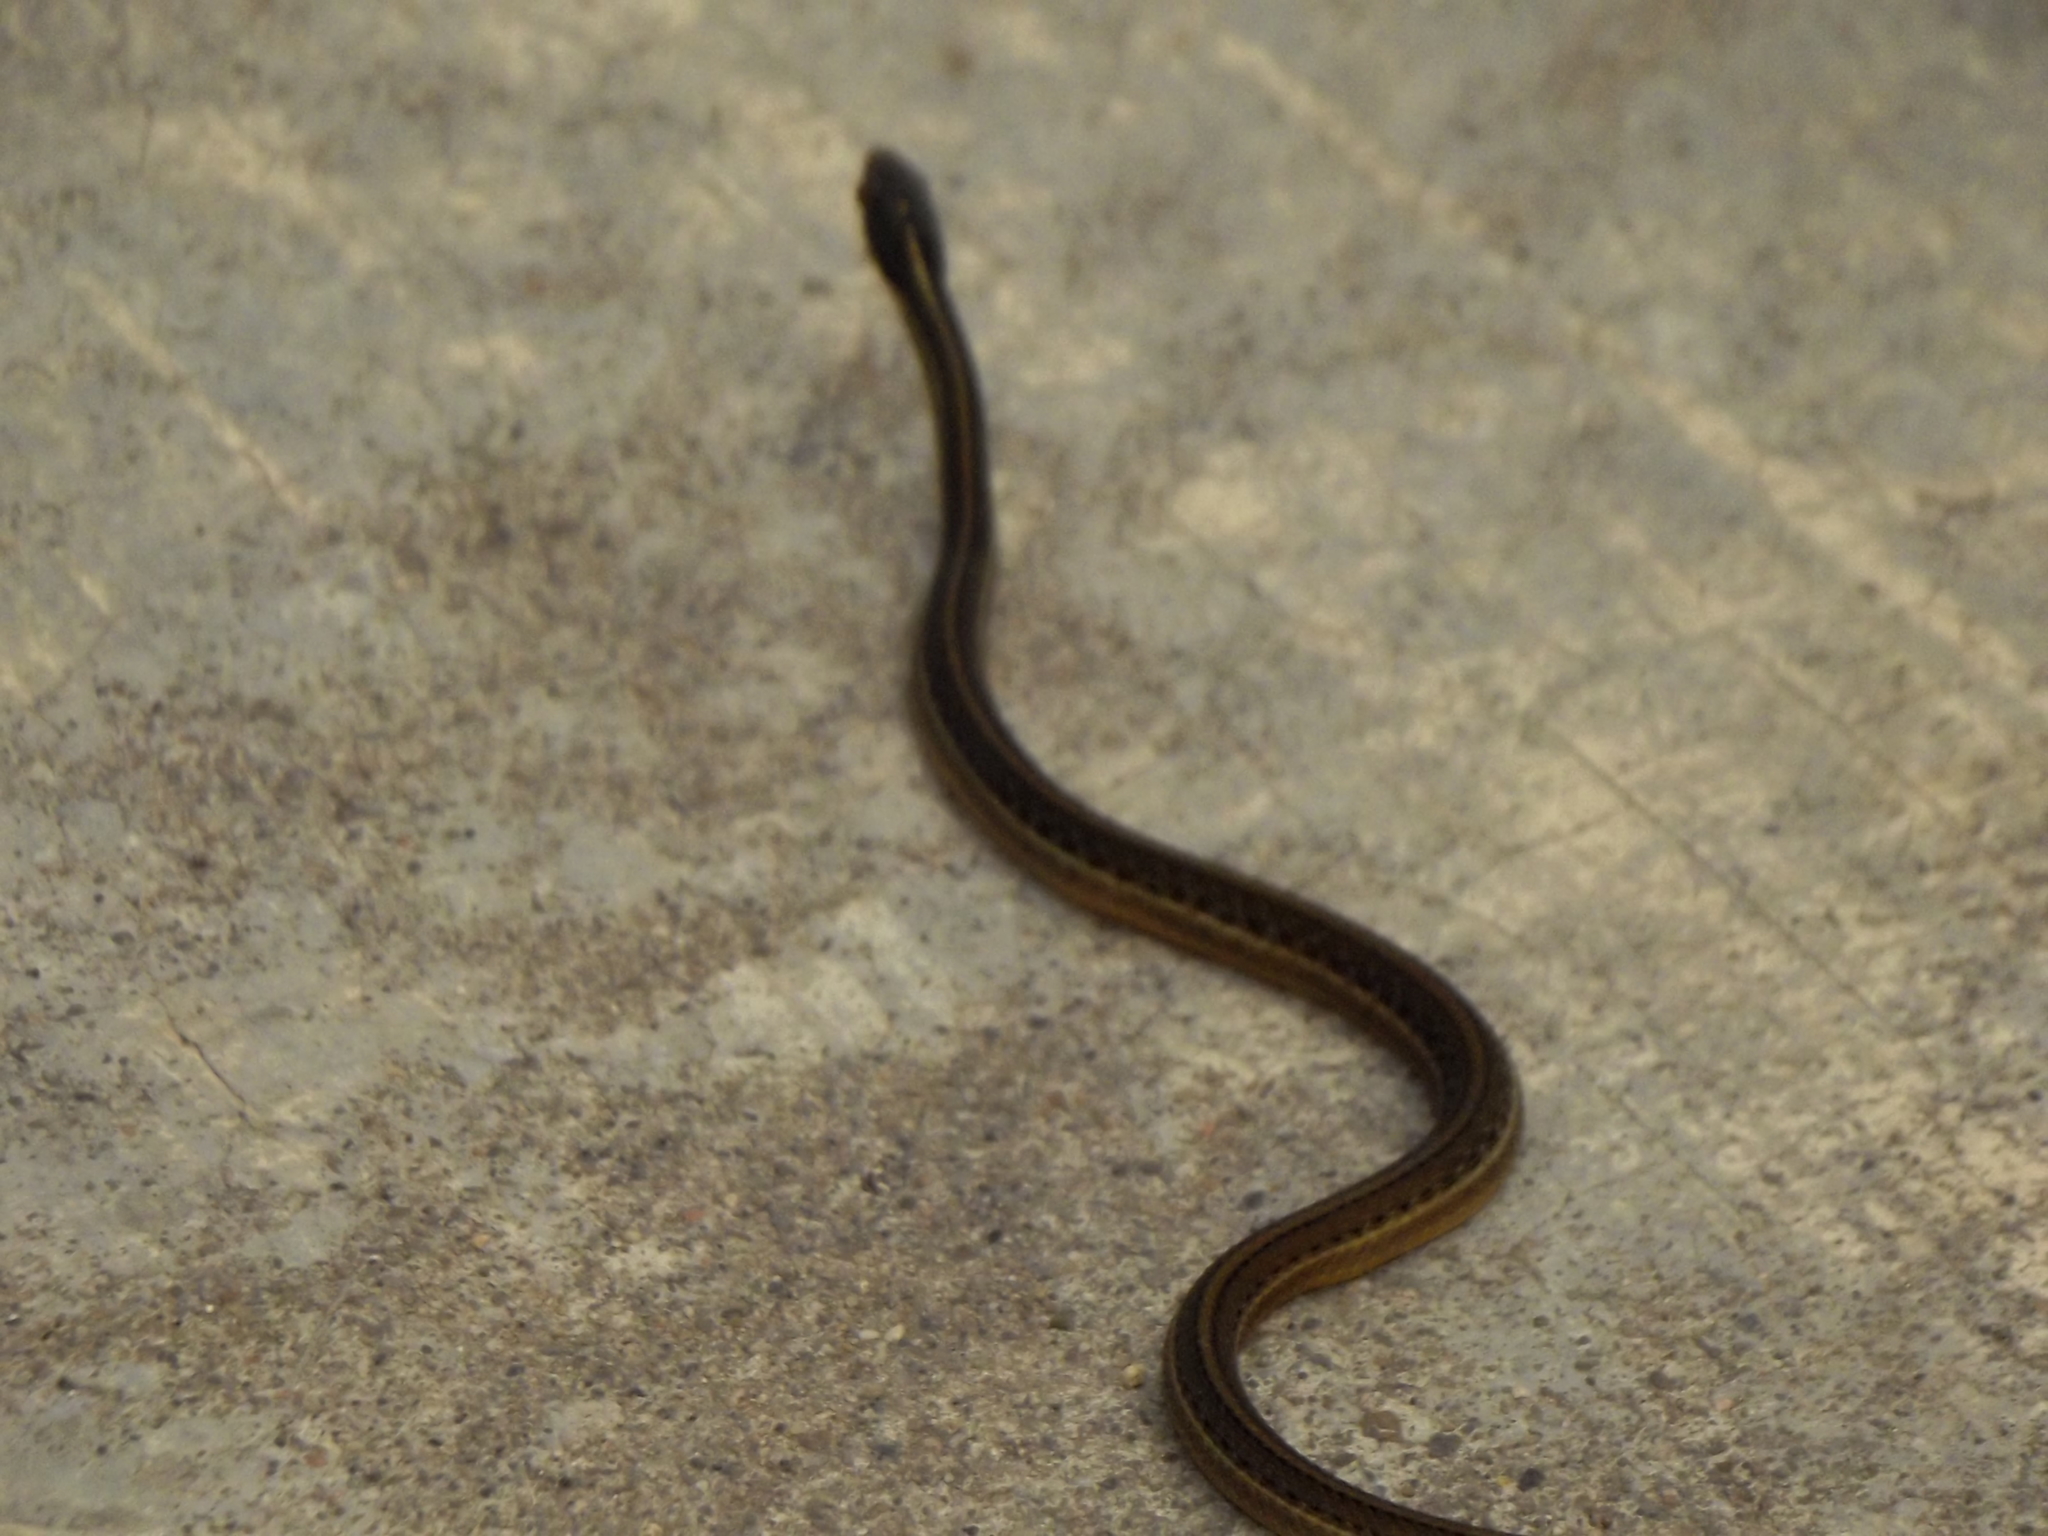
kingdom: Animalia
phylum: Chordata
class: Squamata
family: Colubridae
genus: Thamnophis
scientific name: Thamnophis proximus
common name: Western ribbon snake
